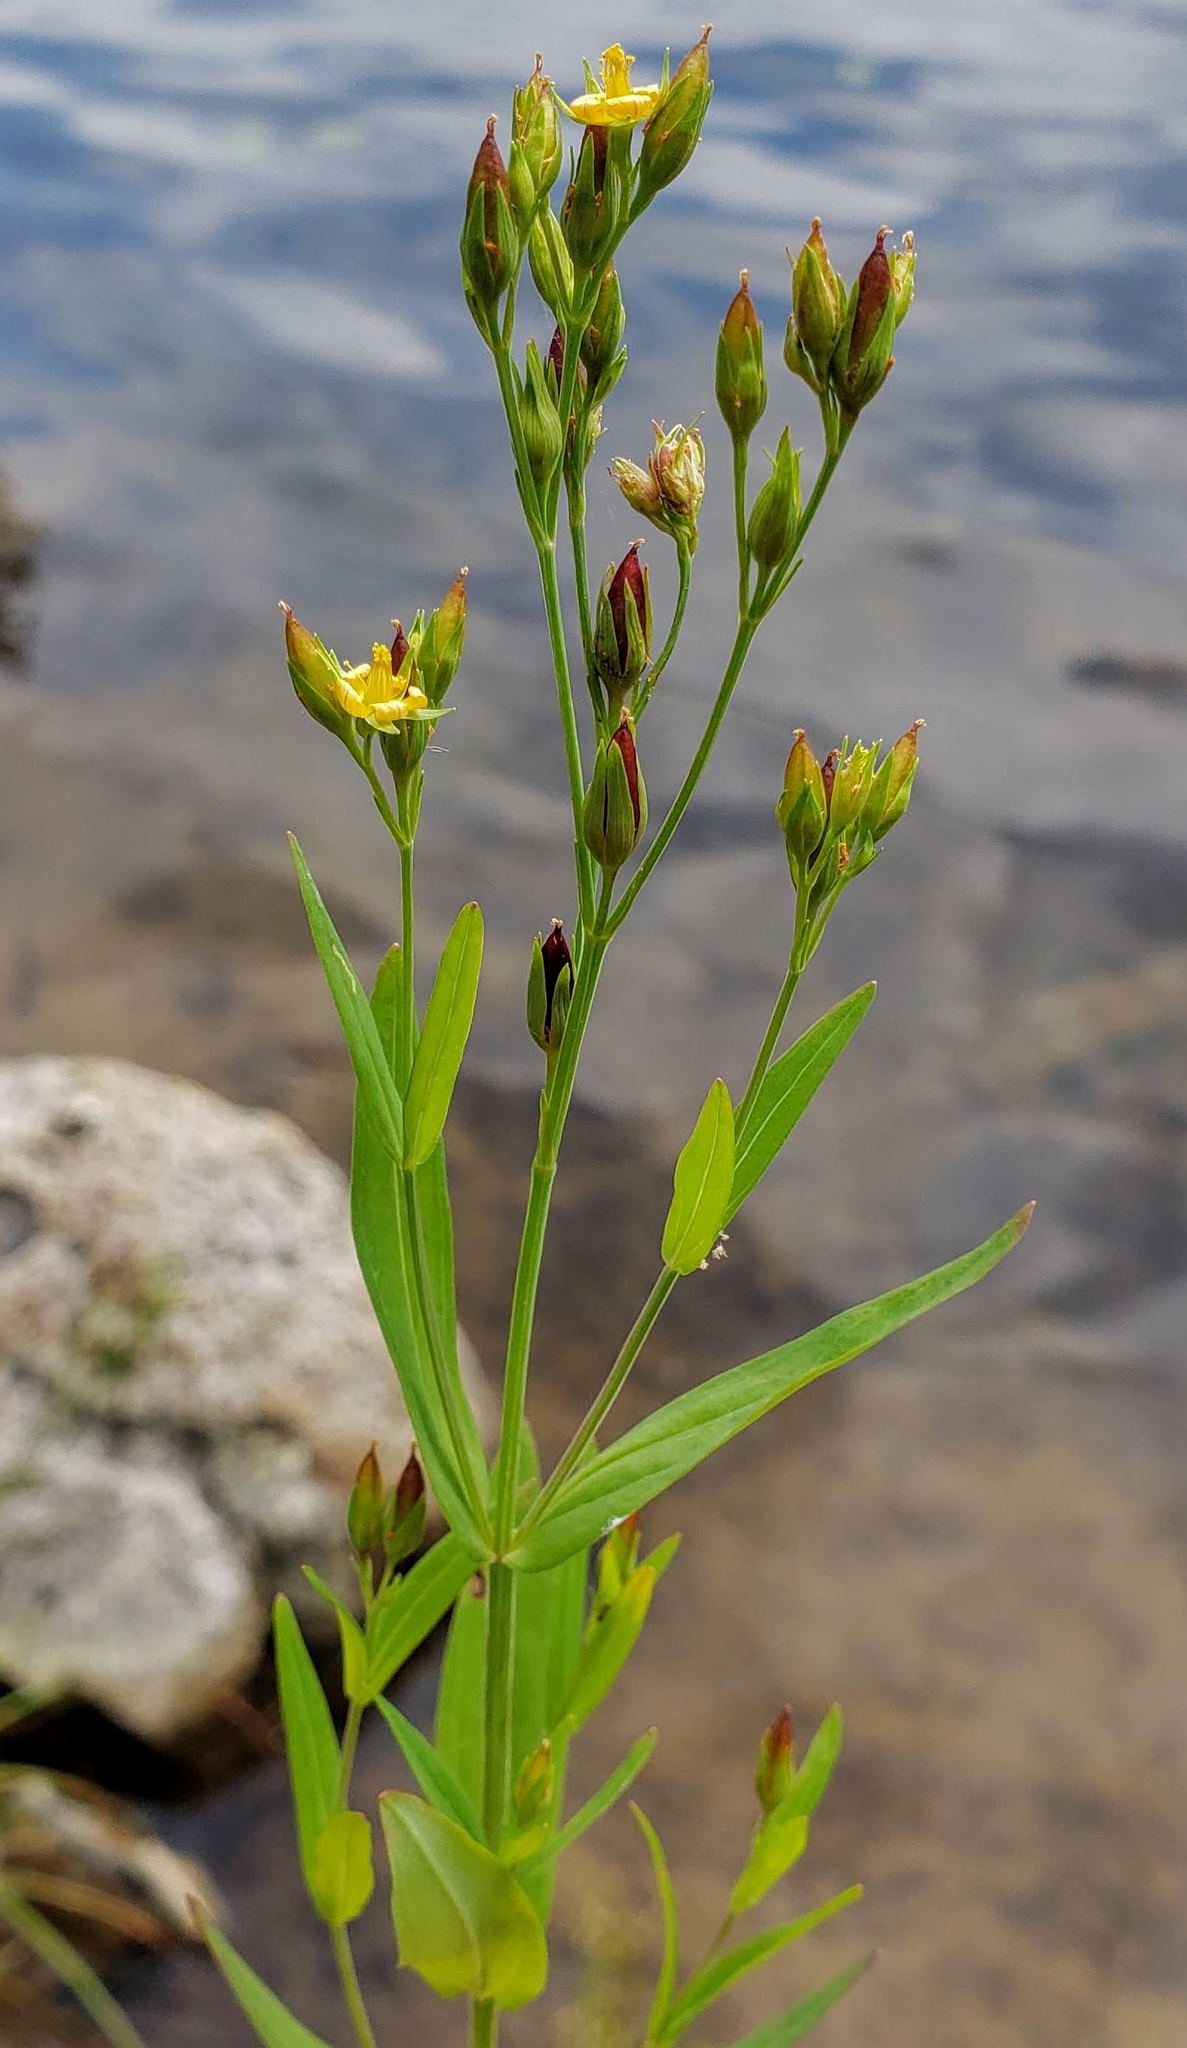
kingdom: Plantae
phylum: Tracheophyta
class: Magnoliopsida
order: Malpighiales
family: Hypericaceae
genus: Hypericum
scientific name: Hypericum majus
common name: Greater canadian st. john's-wort
